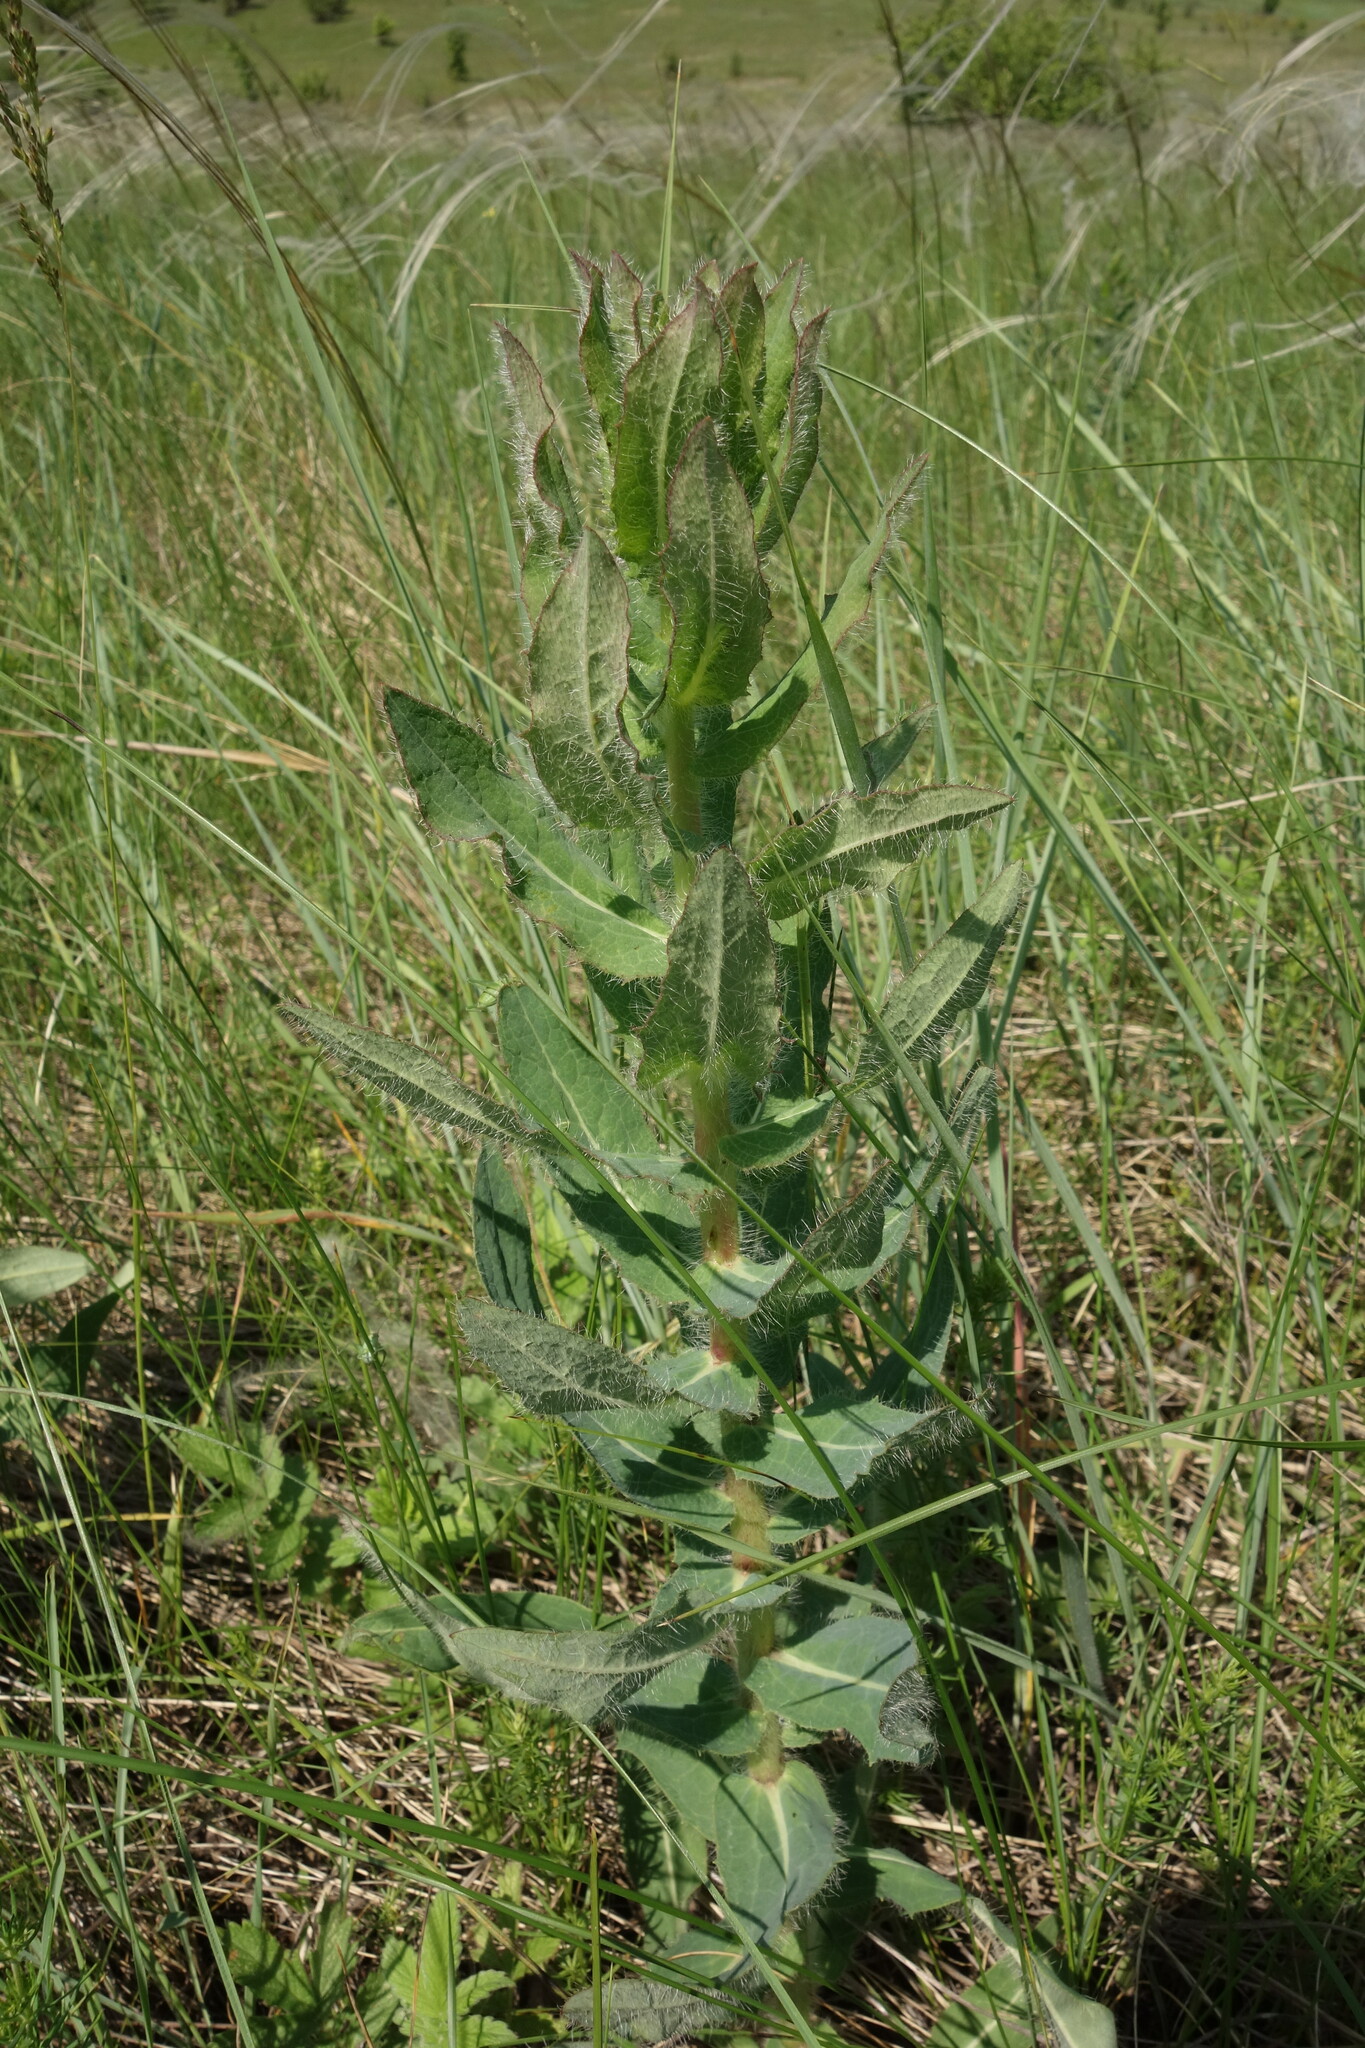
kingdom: Plantae
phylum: Tracheophyta
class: Magnoliopsida
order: Asterales
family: Asteraceae
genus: Hieracium
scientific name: Hieracium virosum
